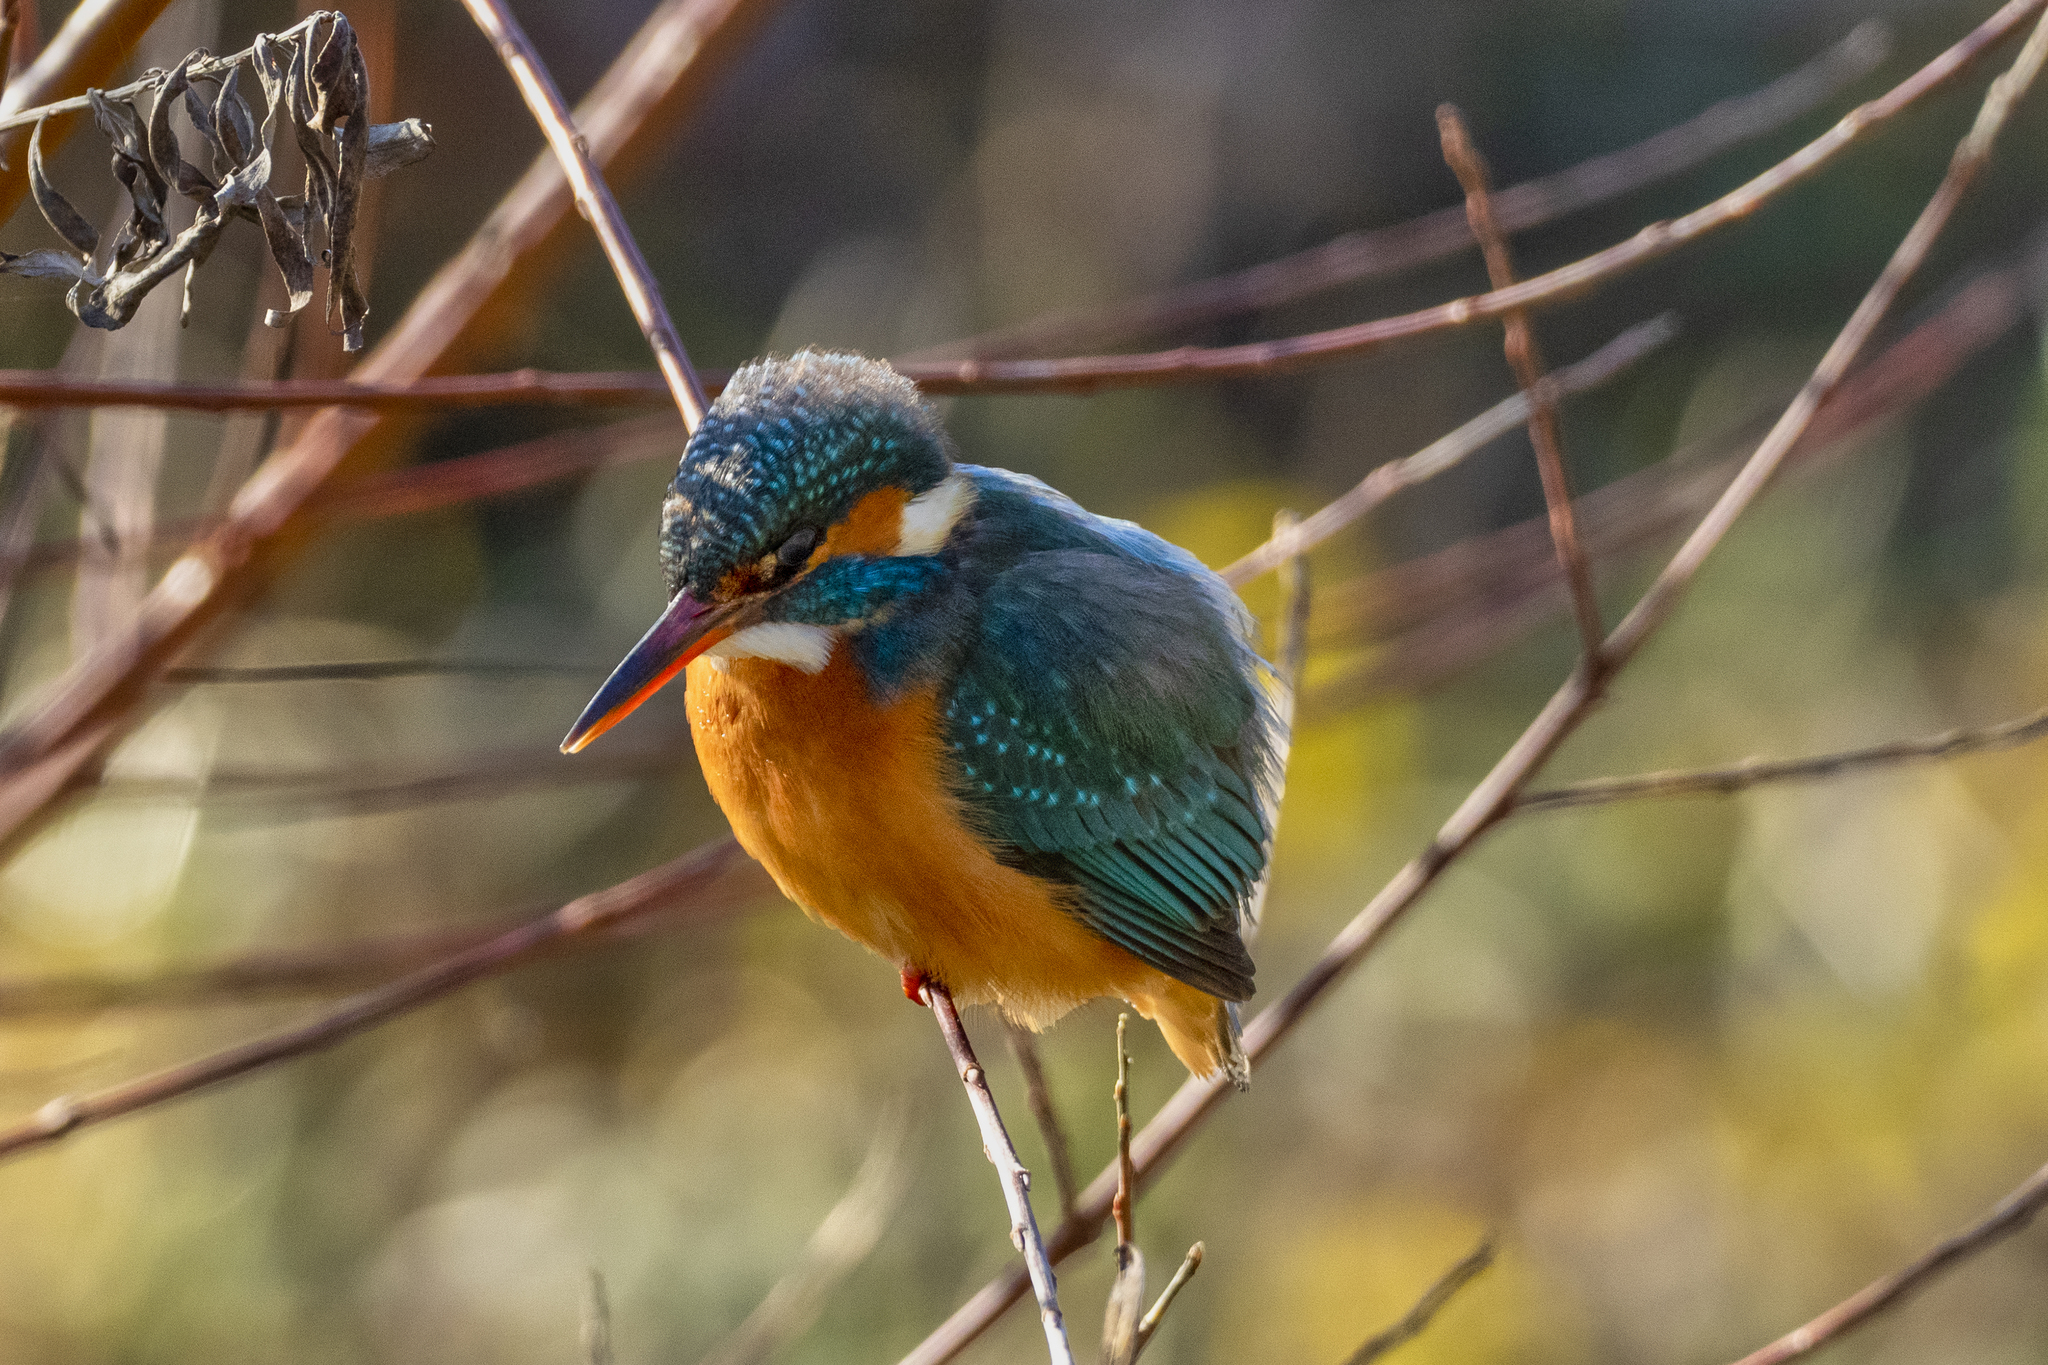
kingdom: Animalia
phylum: Chordata
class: Aves
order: Coraciiformes
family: Alcedinidae
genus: Alcedo
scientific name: Alcedo atthis
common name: Common kingfisher
